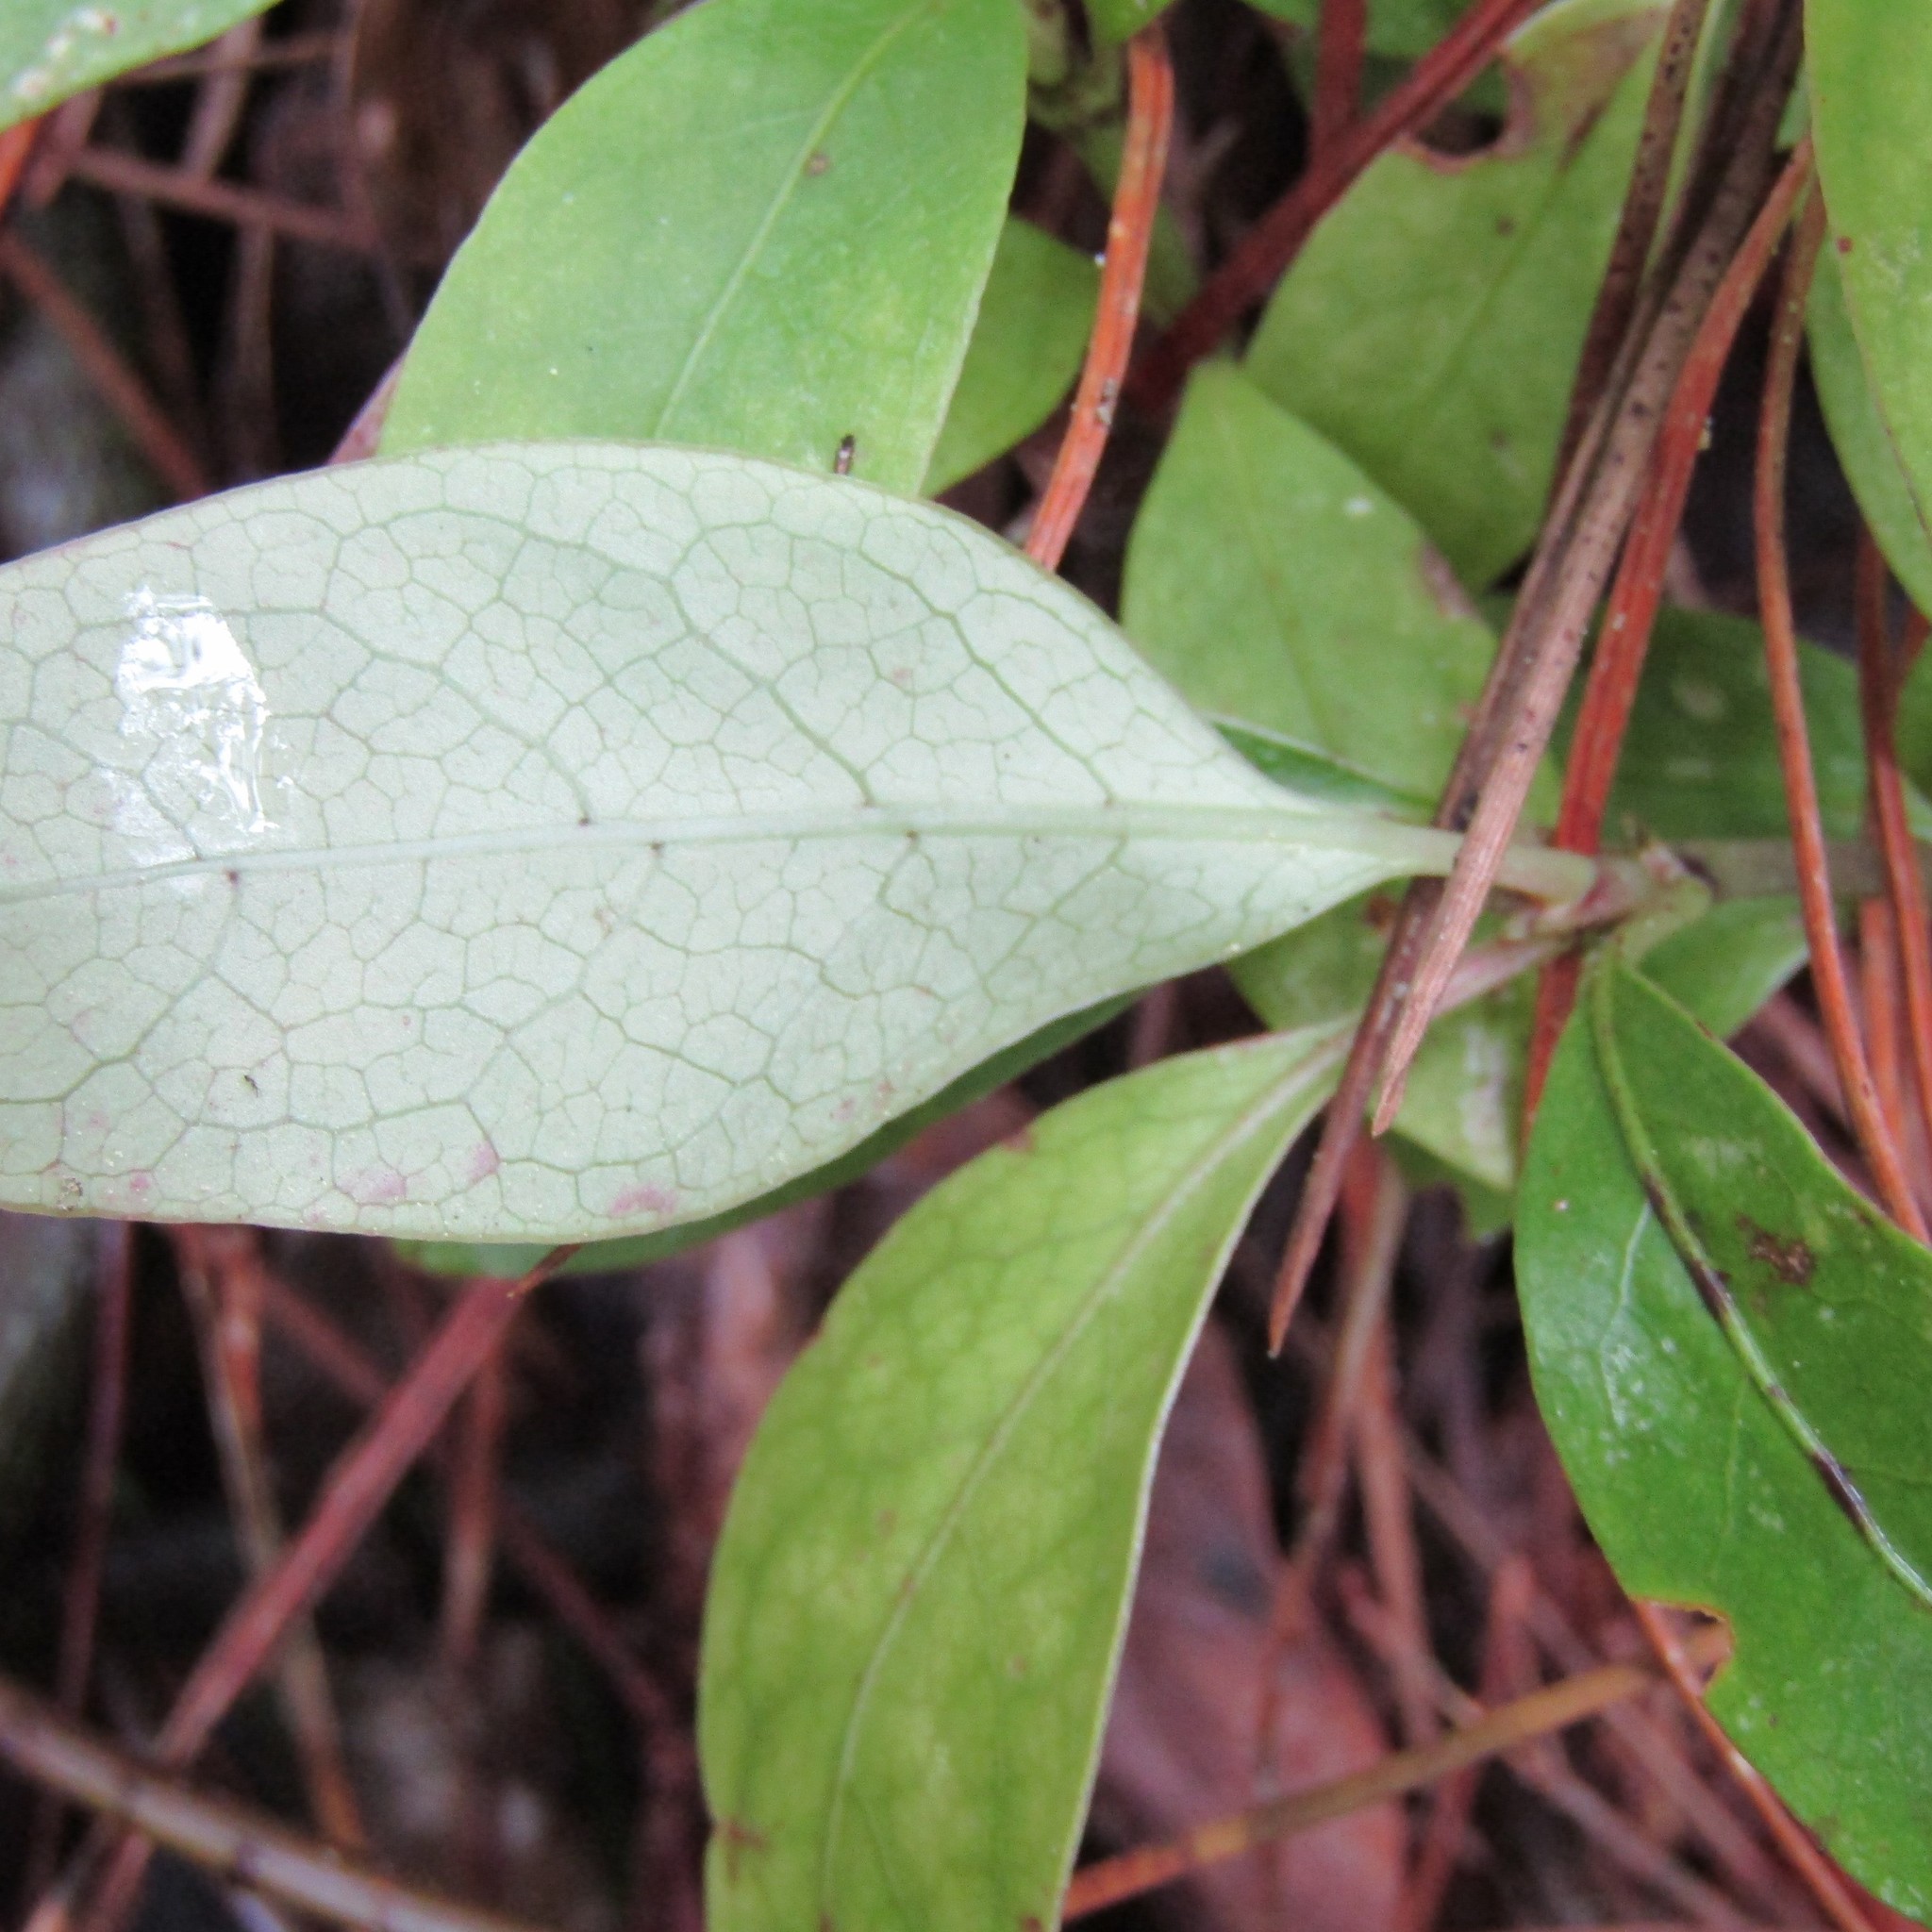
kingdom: Plantae
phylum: Tracheophyta
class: Magnoliopsida
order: Gentianales
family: Rubiaceae
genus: Coprosma
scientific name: Coprosma autumnalis
